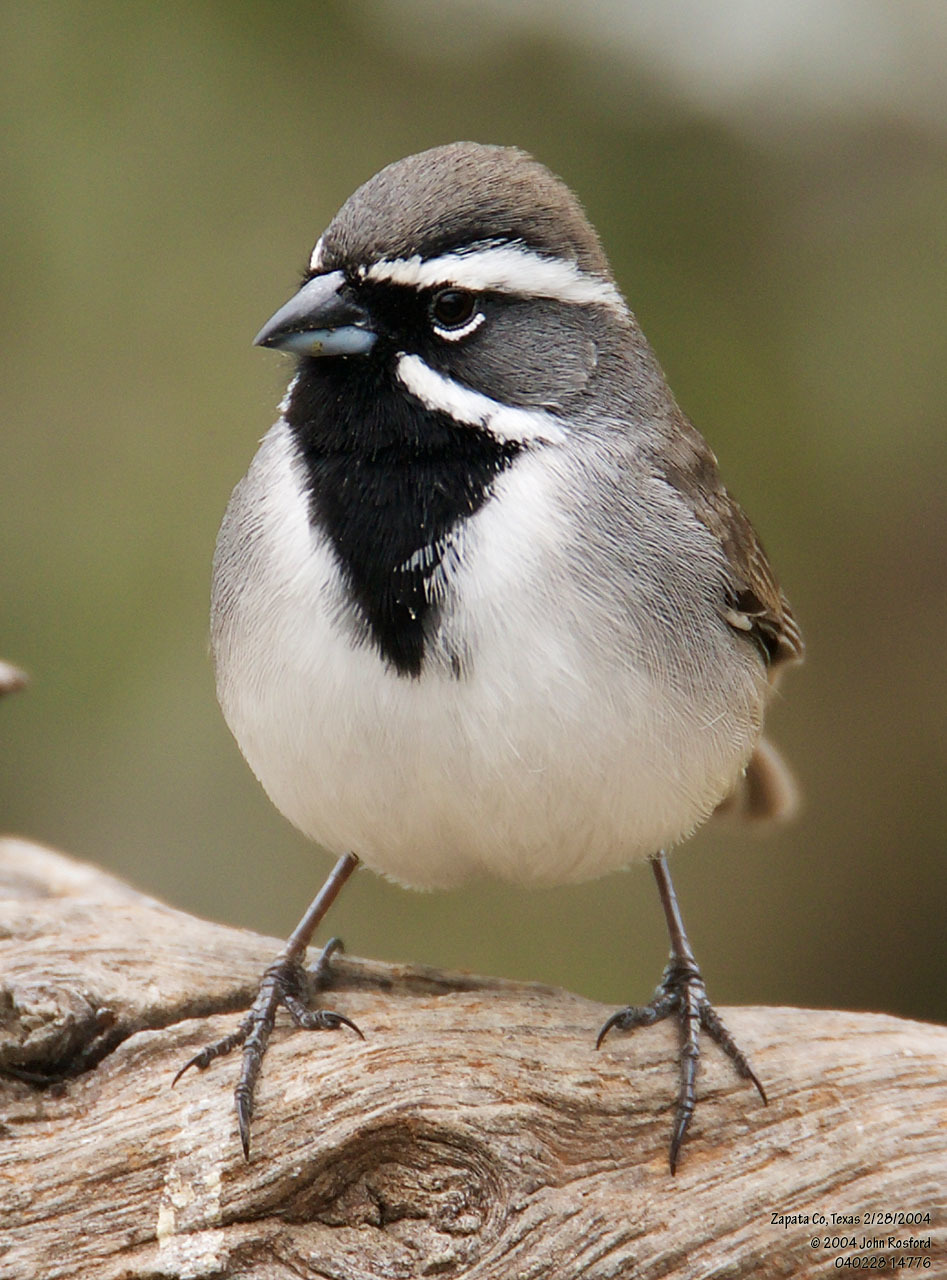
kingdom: Animalia
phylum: Chordata
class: Aves
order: Passeriformes
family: Passerellidae
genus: Amphispiza
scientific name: Amphispiza bilineata
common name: Black-throated sparrow
